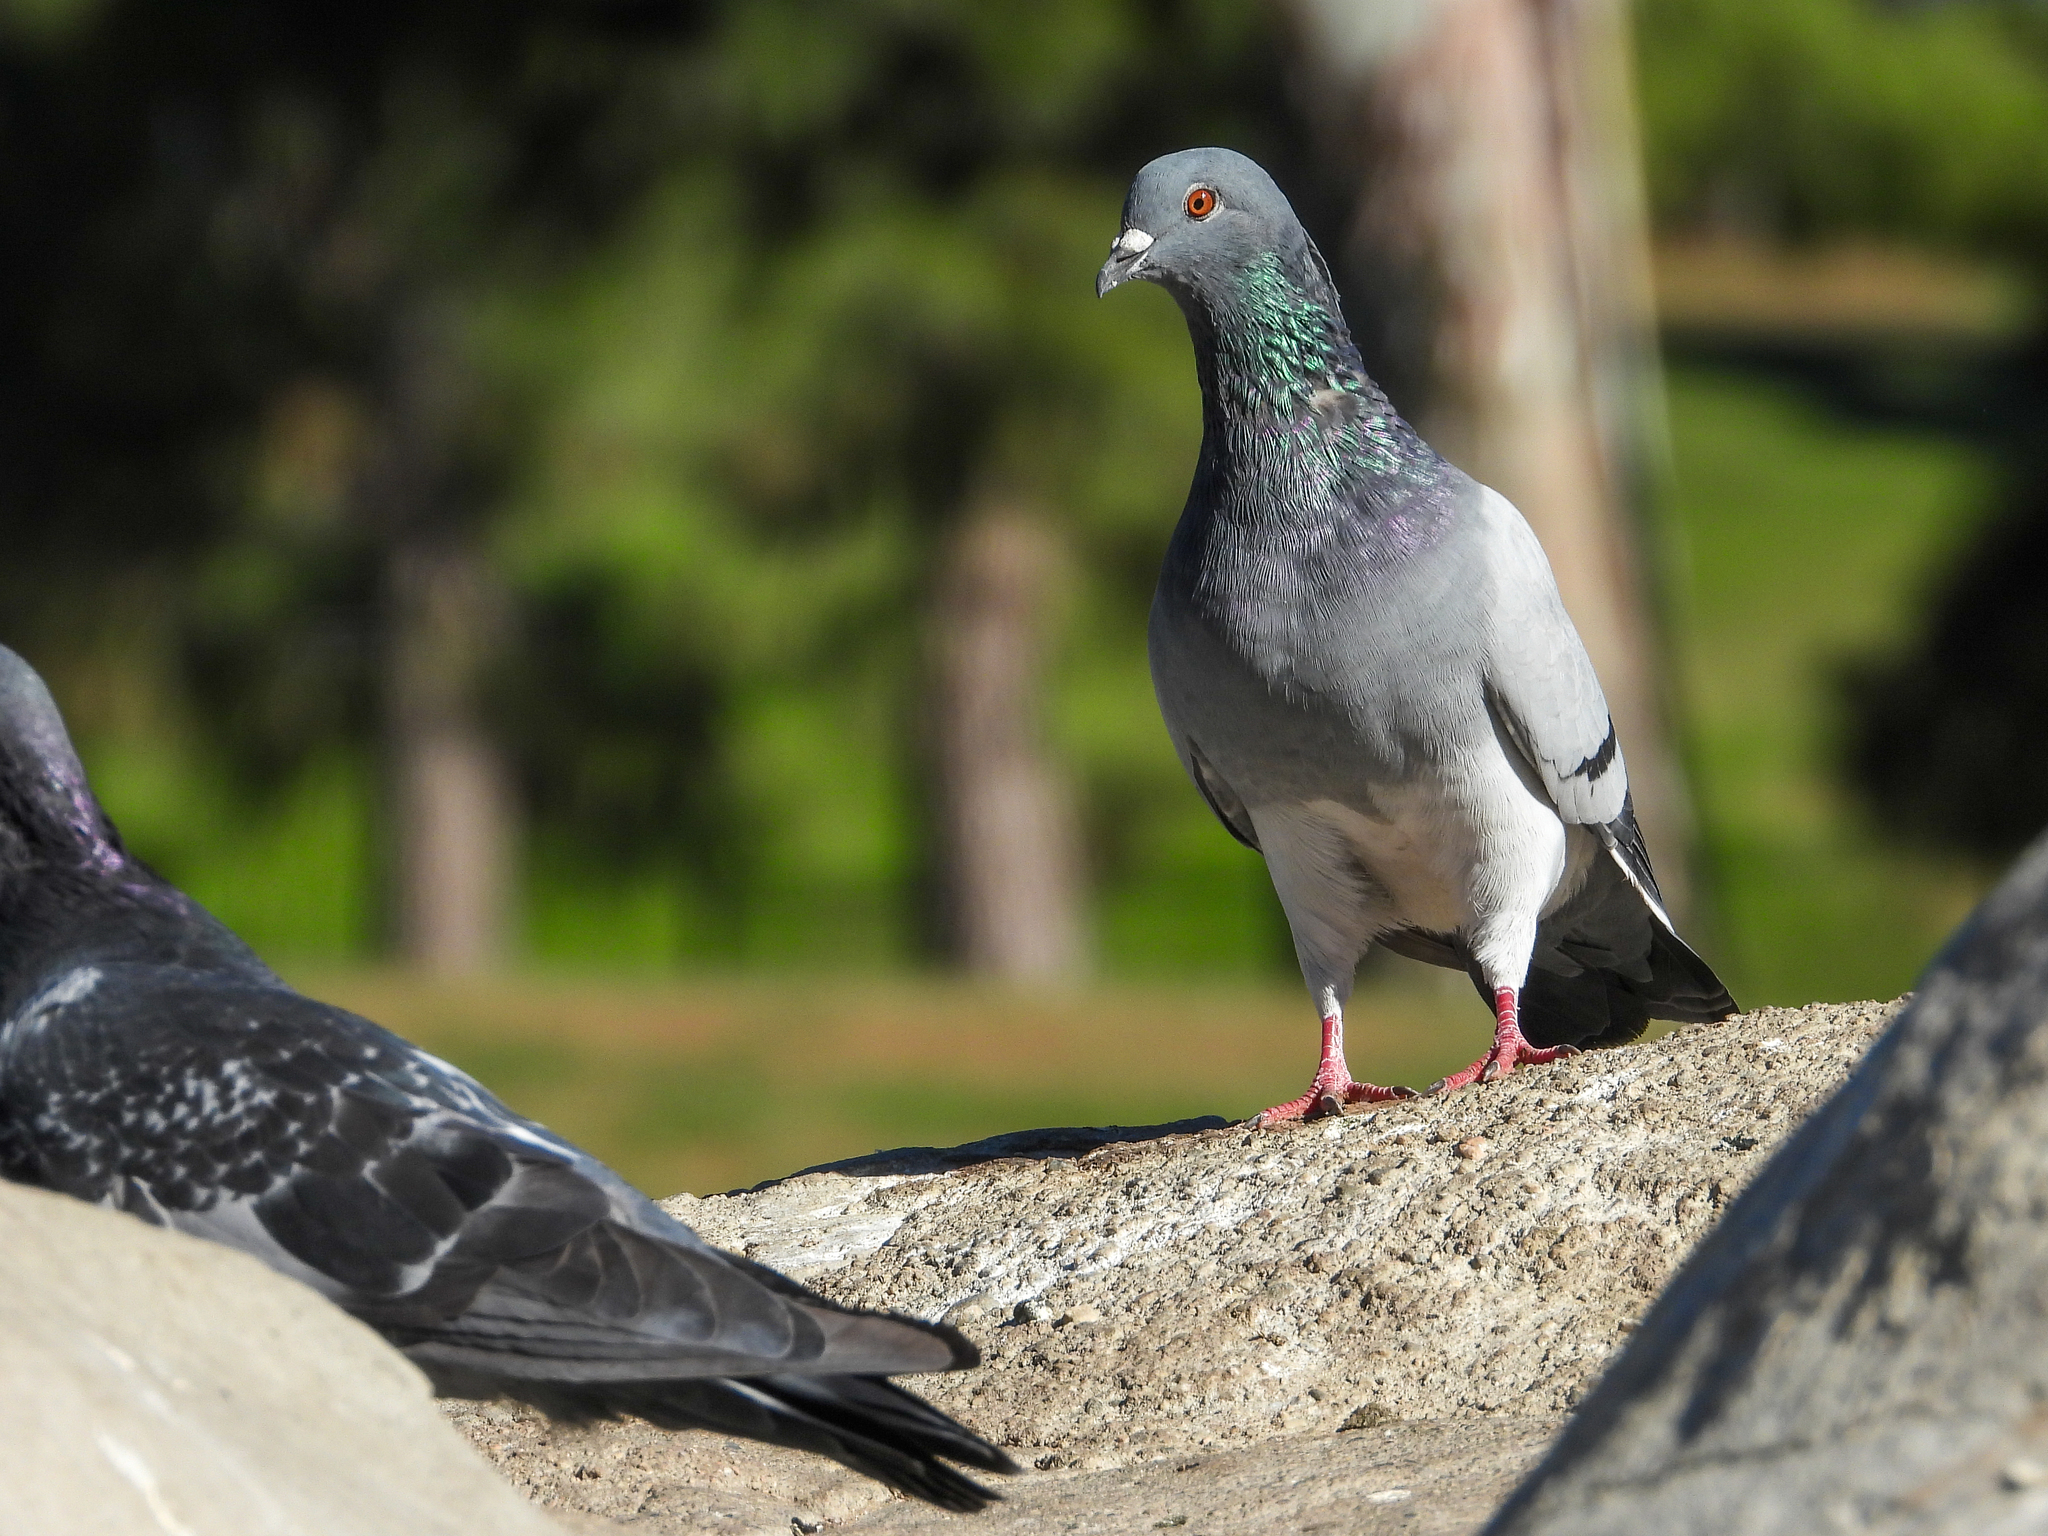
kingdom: Animalia
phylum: Chordata
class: Aves
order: Columbiformes
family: Columbidae
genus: Columba
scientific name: Columba livia
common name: Rock pigeon
